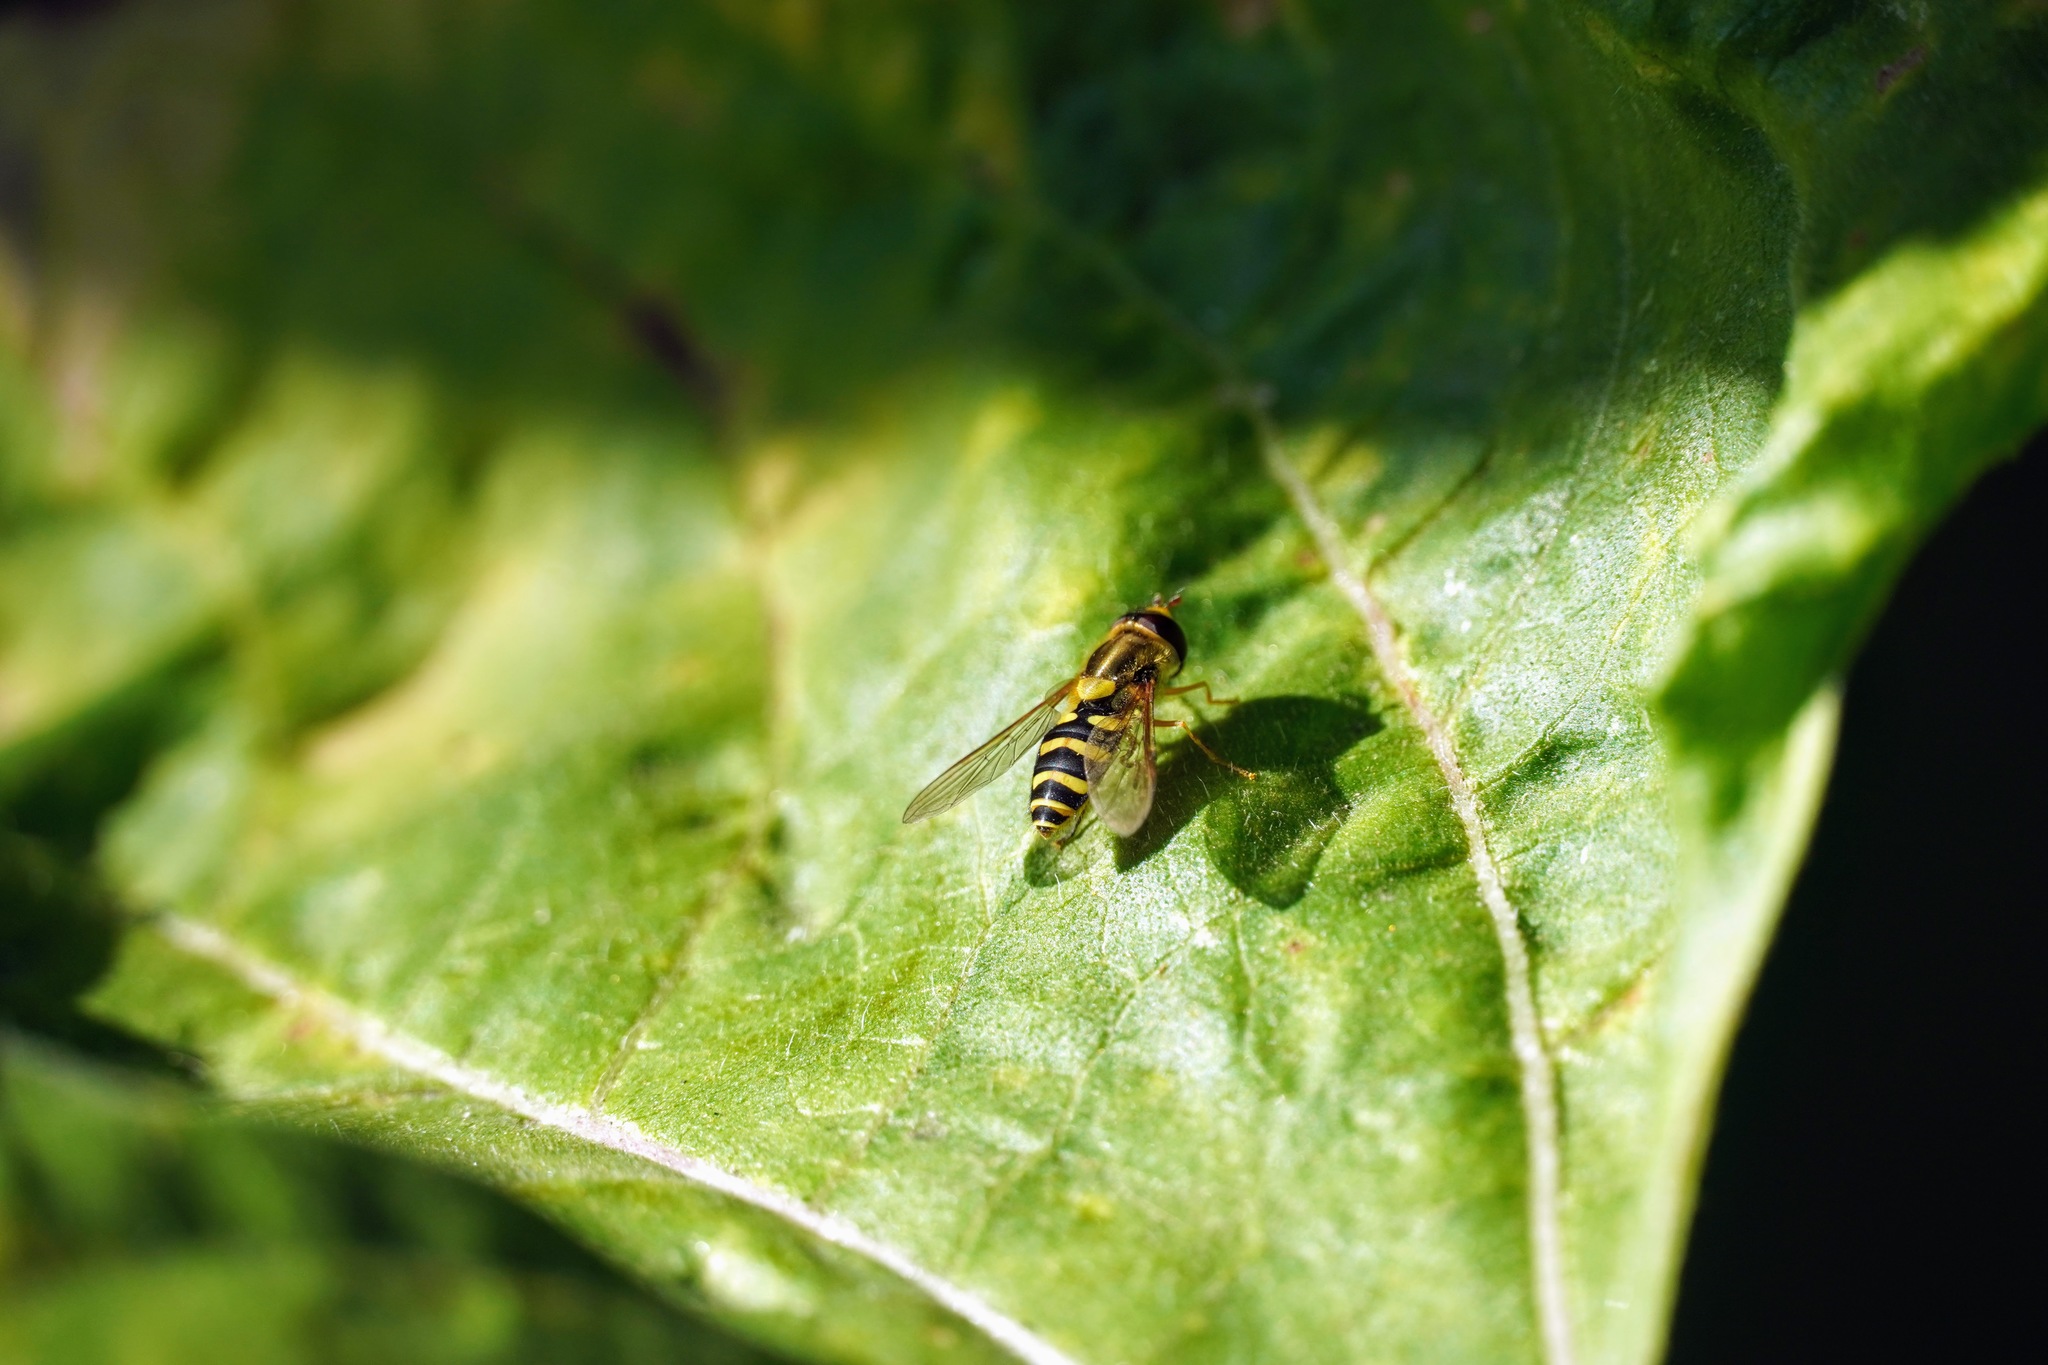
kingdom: Animalia
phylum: Arthropoda
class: Insecta
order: Diptera
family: Syrphidae
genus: Syrphus
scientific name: Syrphus opinator
